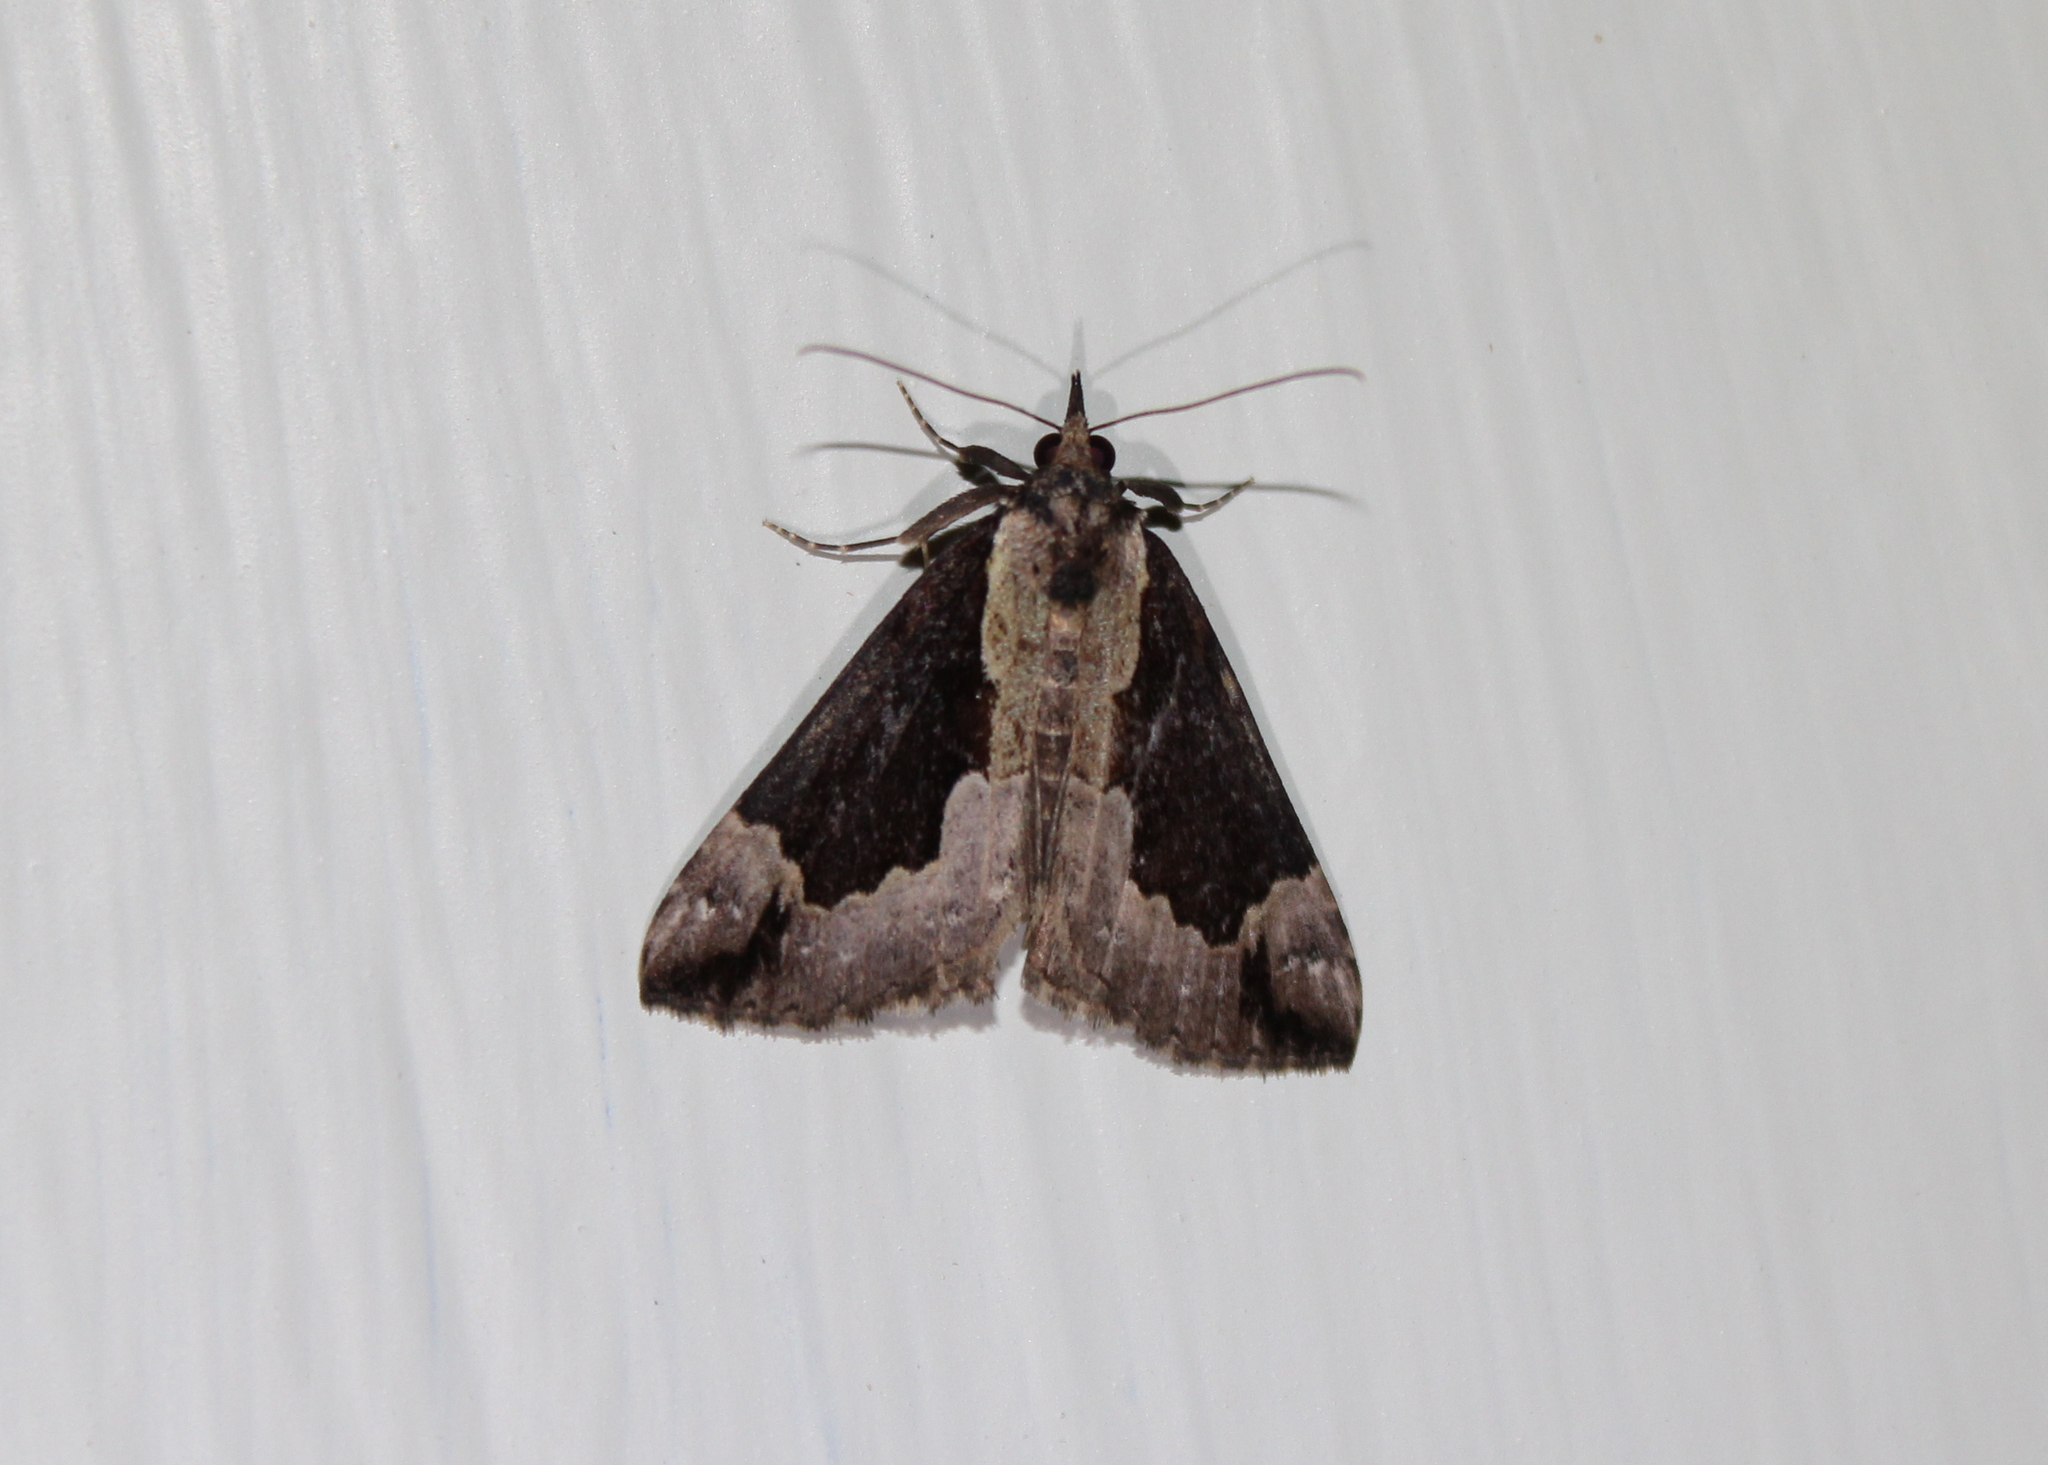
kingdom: Animalia
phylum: Arthropoda
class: Insecta
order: Lepidoptera
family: Erebidae
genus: Hypena
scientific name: Hypena baltimoralis
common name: Baltimore snout
